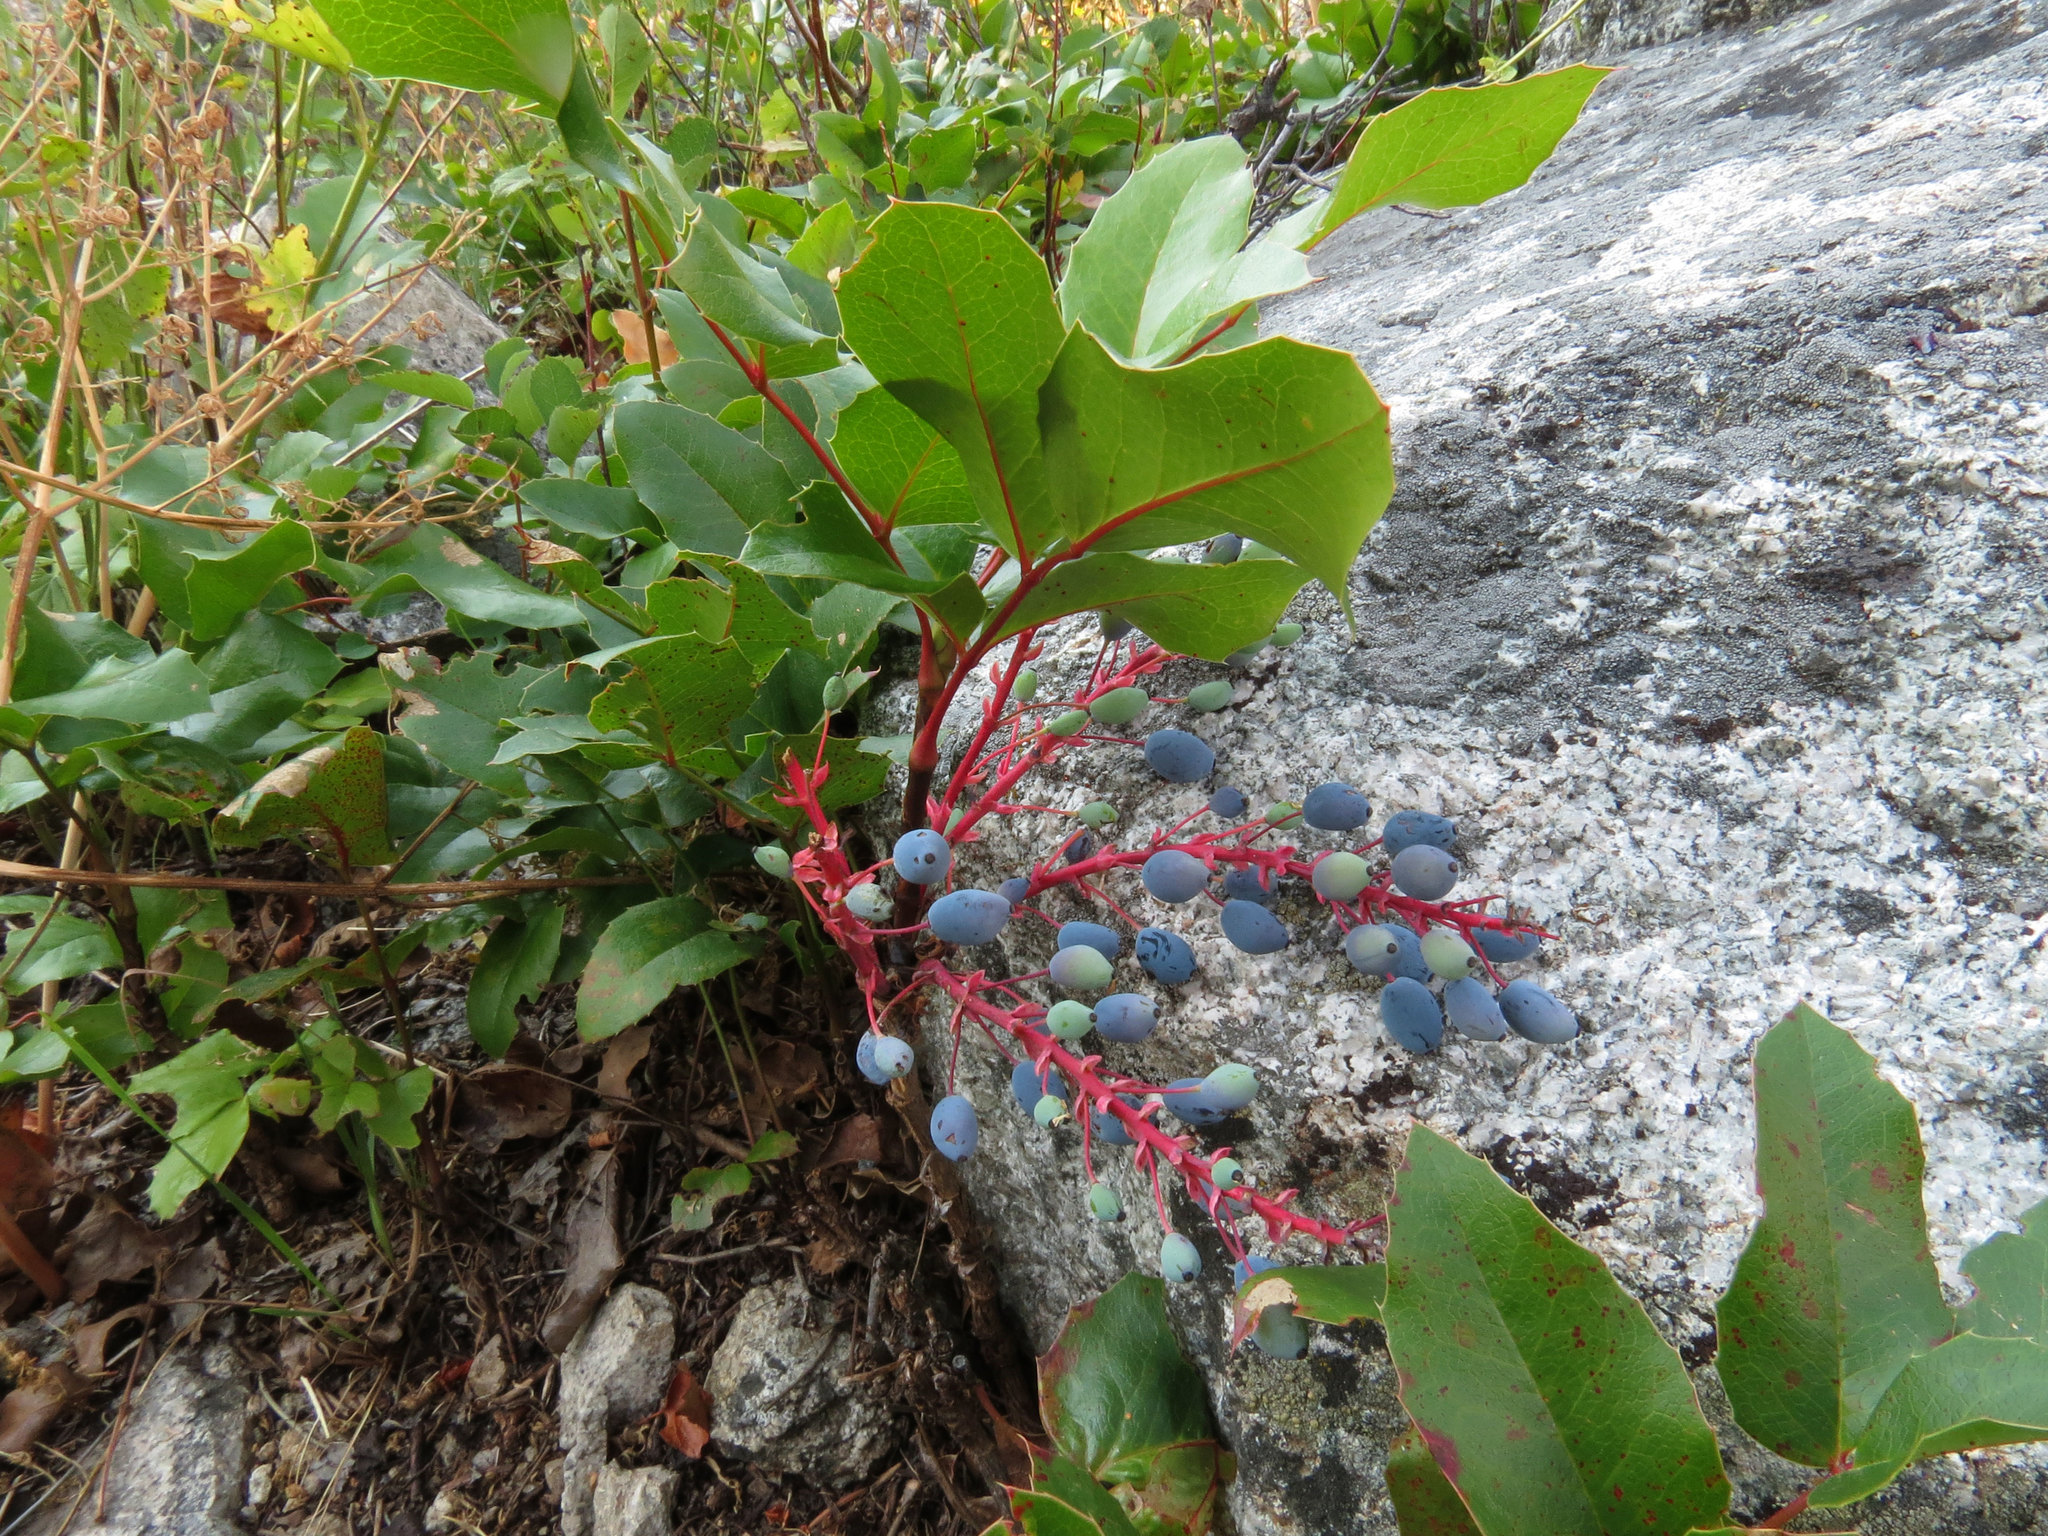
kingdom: Plantae
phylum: Tracheophyta
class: Magnoliopsida
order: Ranunculales
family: Berberidaceae
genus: Mahonia
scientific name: Mahonia repens
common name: Creeping oregon-grape
